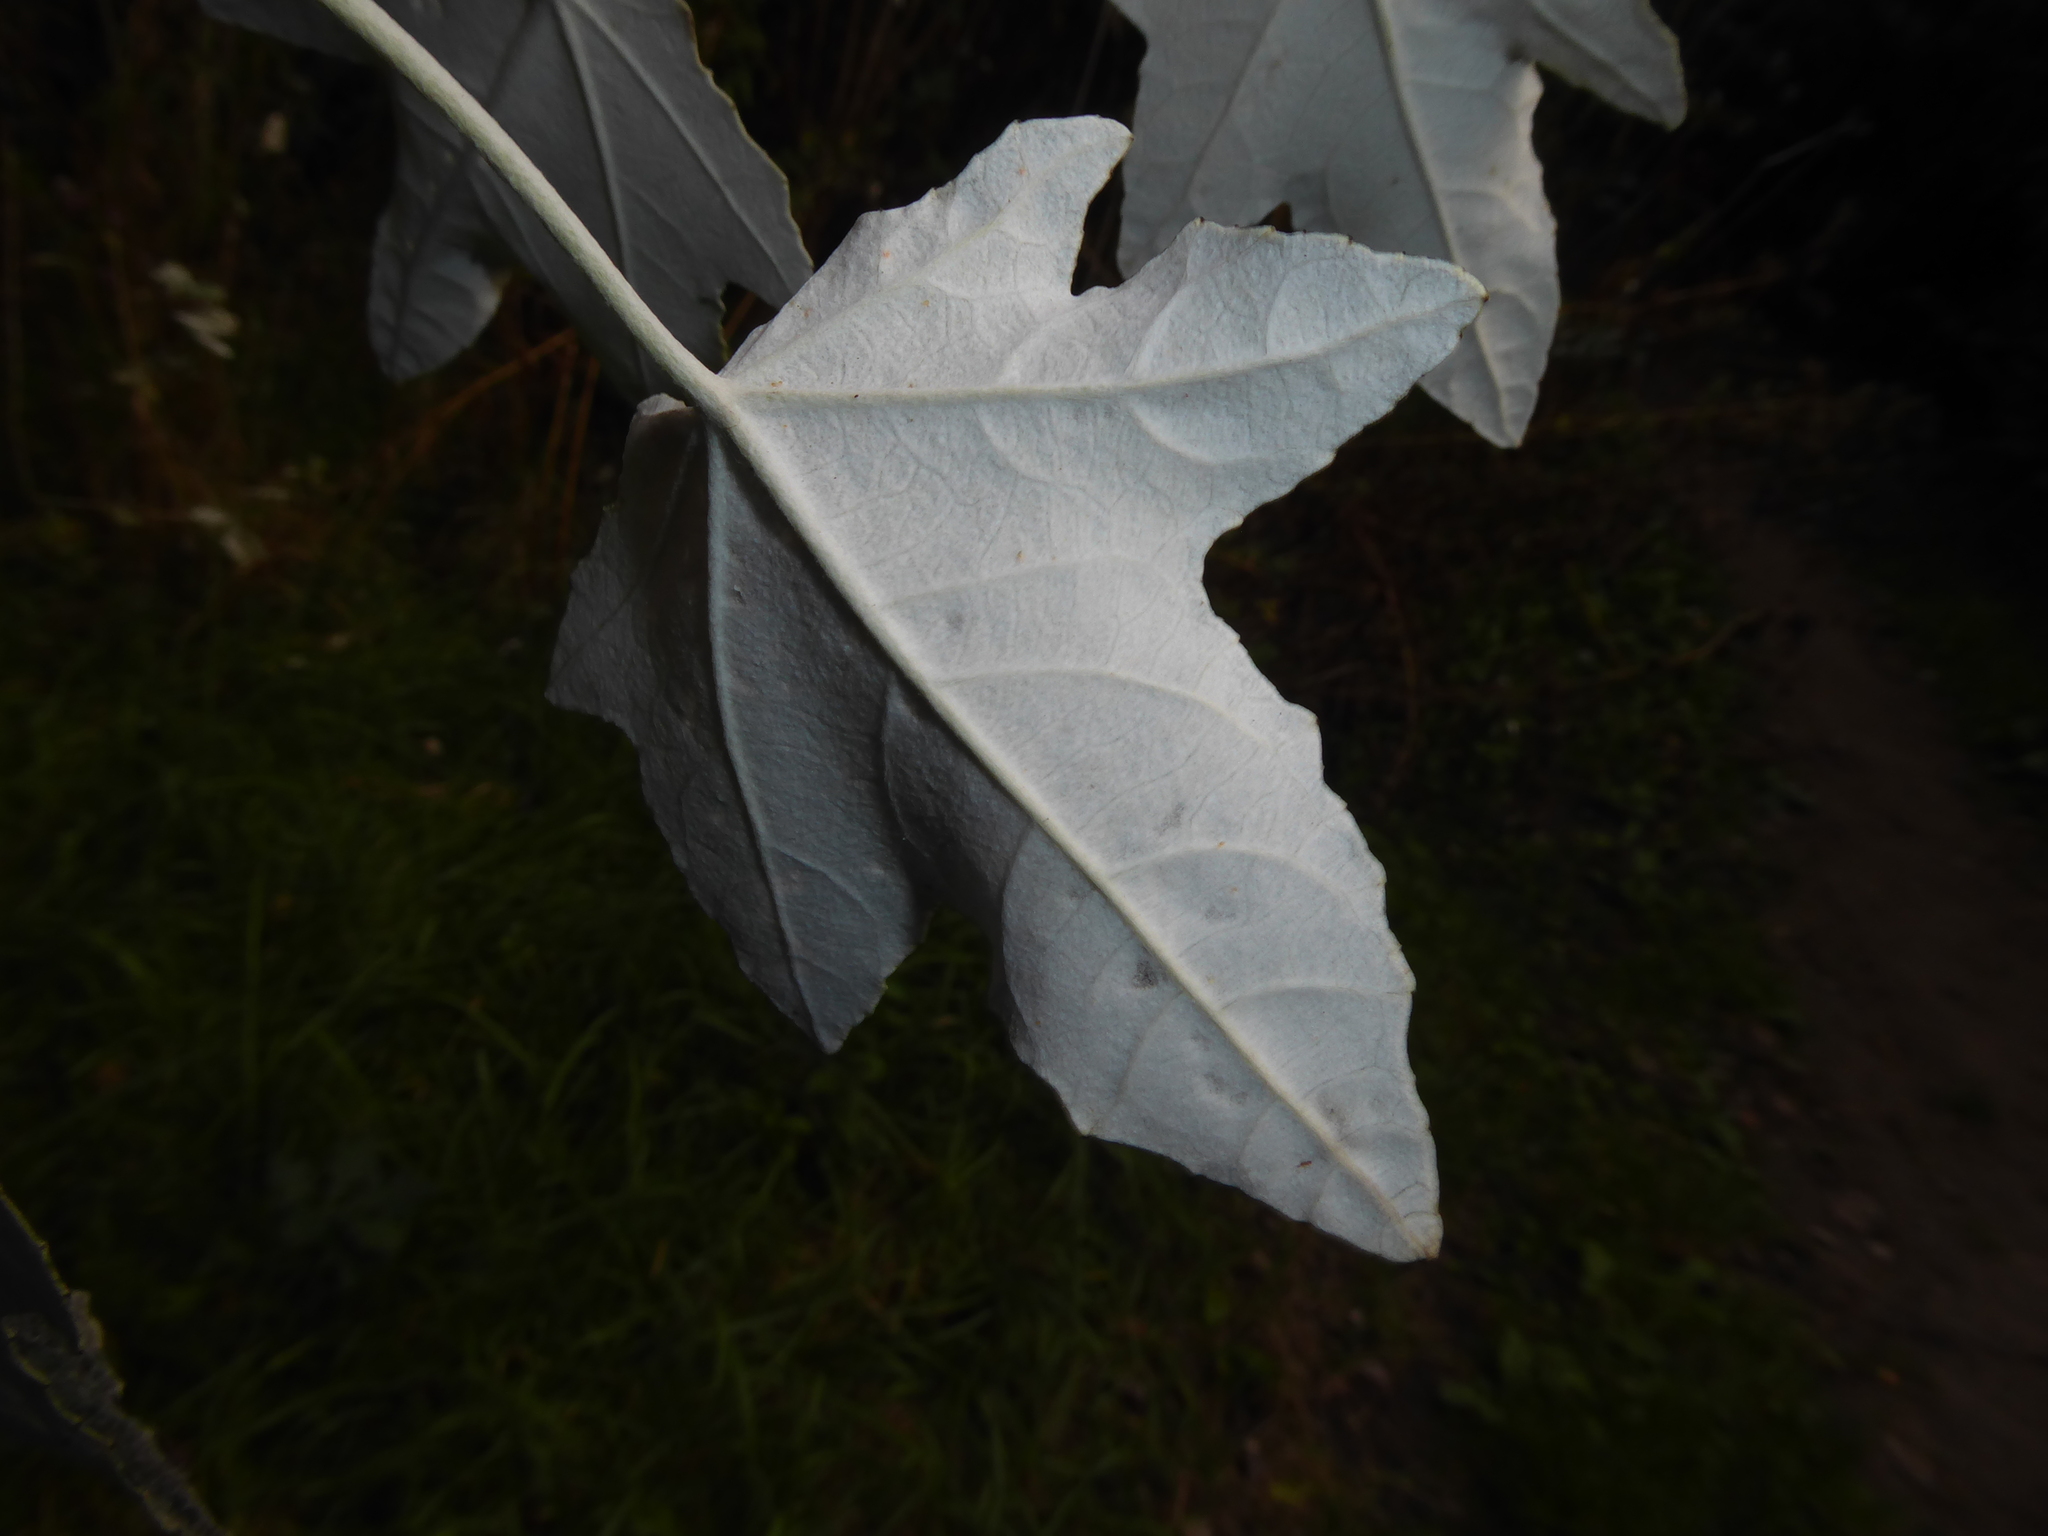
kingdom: Plantae
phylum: Tracheophyta
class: Magnoliopsida
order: Malpighiales
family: Salicaceae
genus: Populus
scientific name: Populus alba
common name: White poplar
